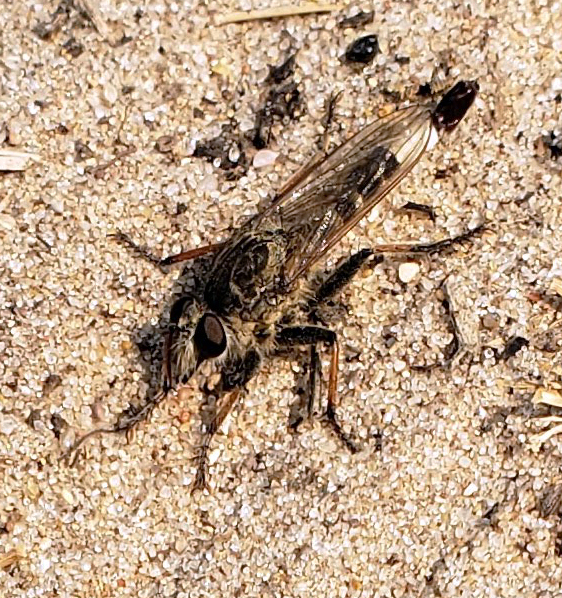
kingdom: Animalia
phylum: Arthropoda
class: Insecta
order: Diptera
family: Asilidae
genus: Efferia
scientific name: Efferia albibarbis
